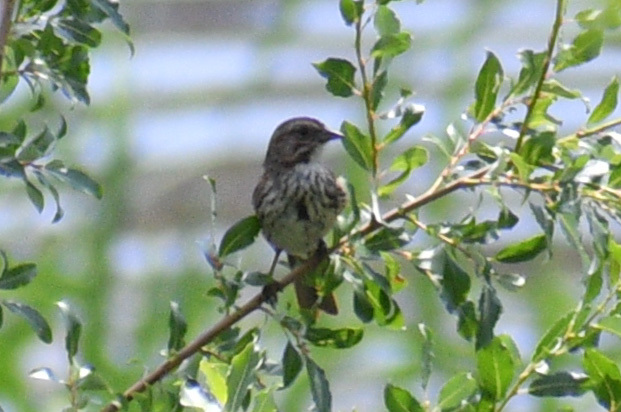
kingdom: Animalia
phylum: Chordata
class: Aves
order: Passeriformes
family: Passerellidae
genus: Melospiza
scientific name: Melospiza melodia
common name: Song sparrow
